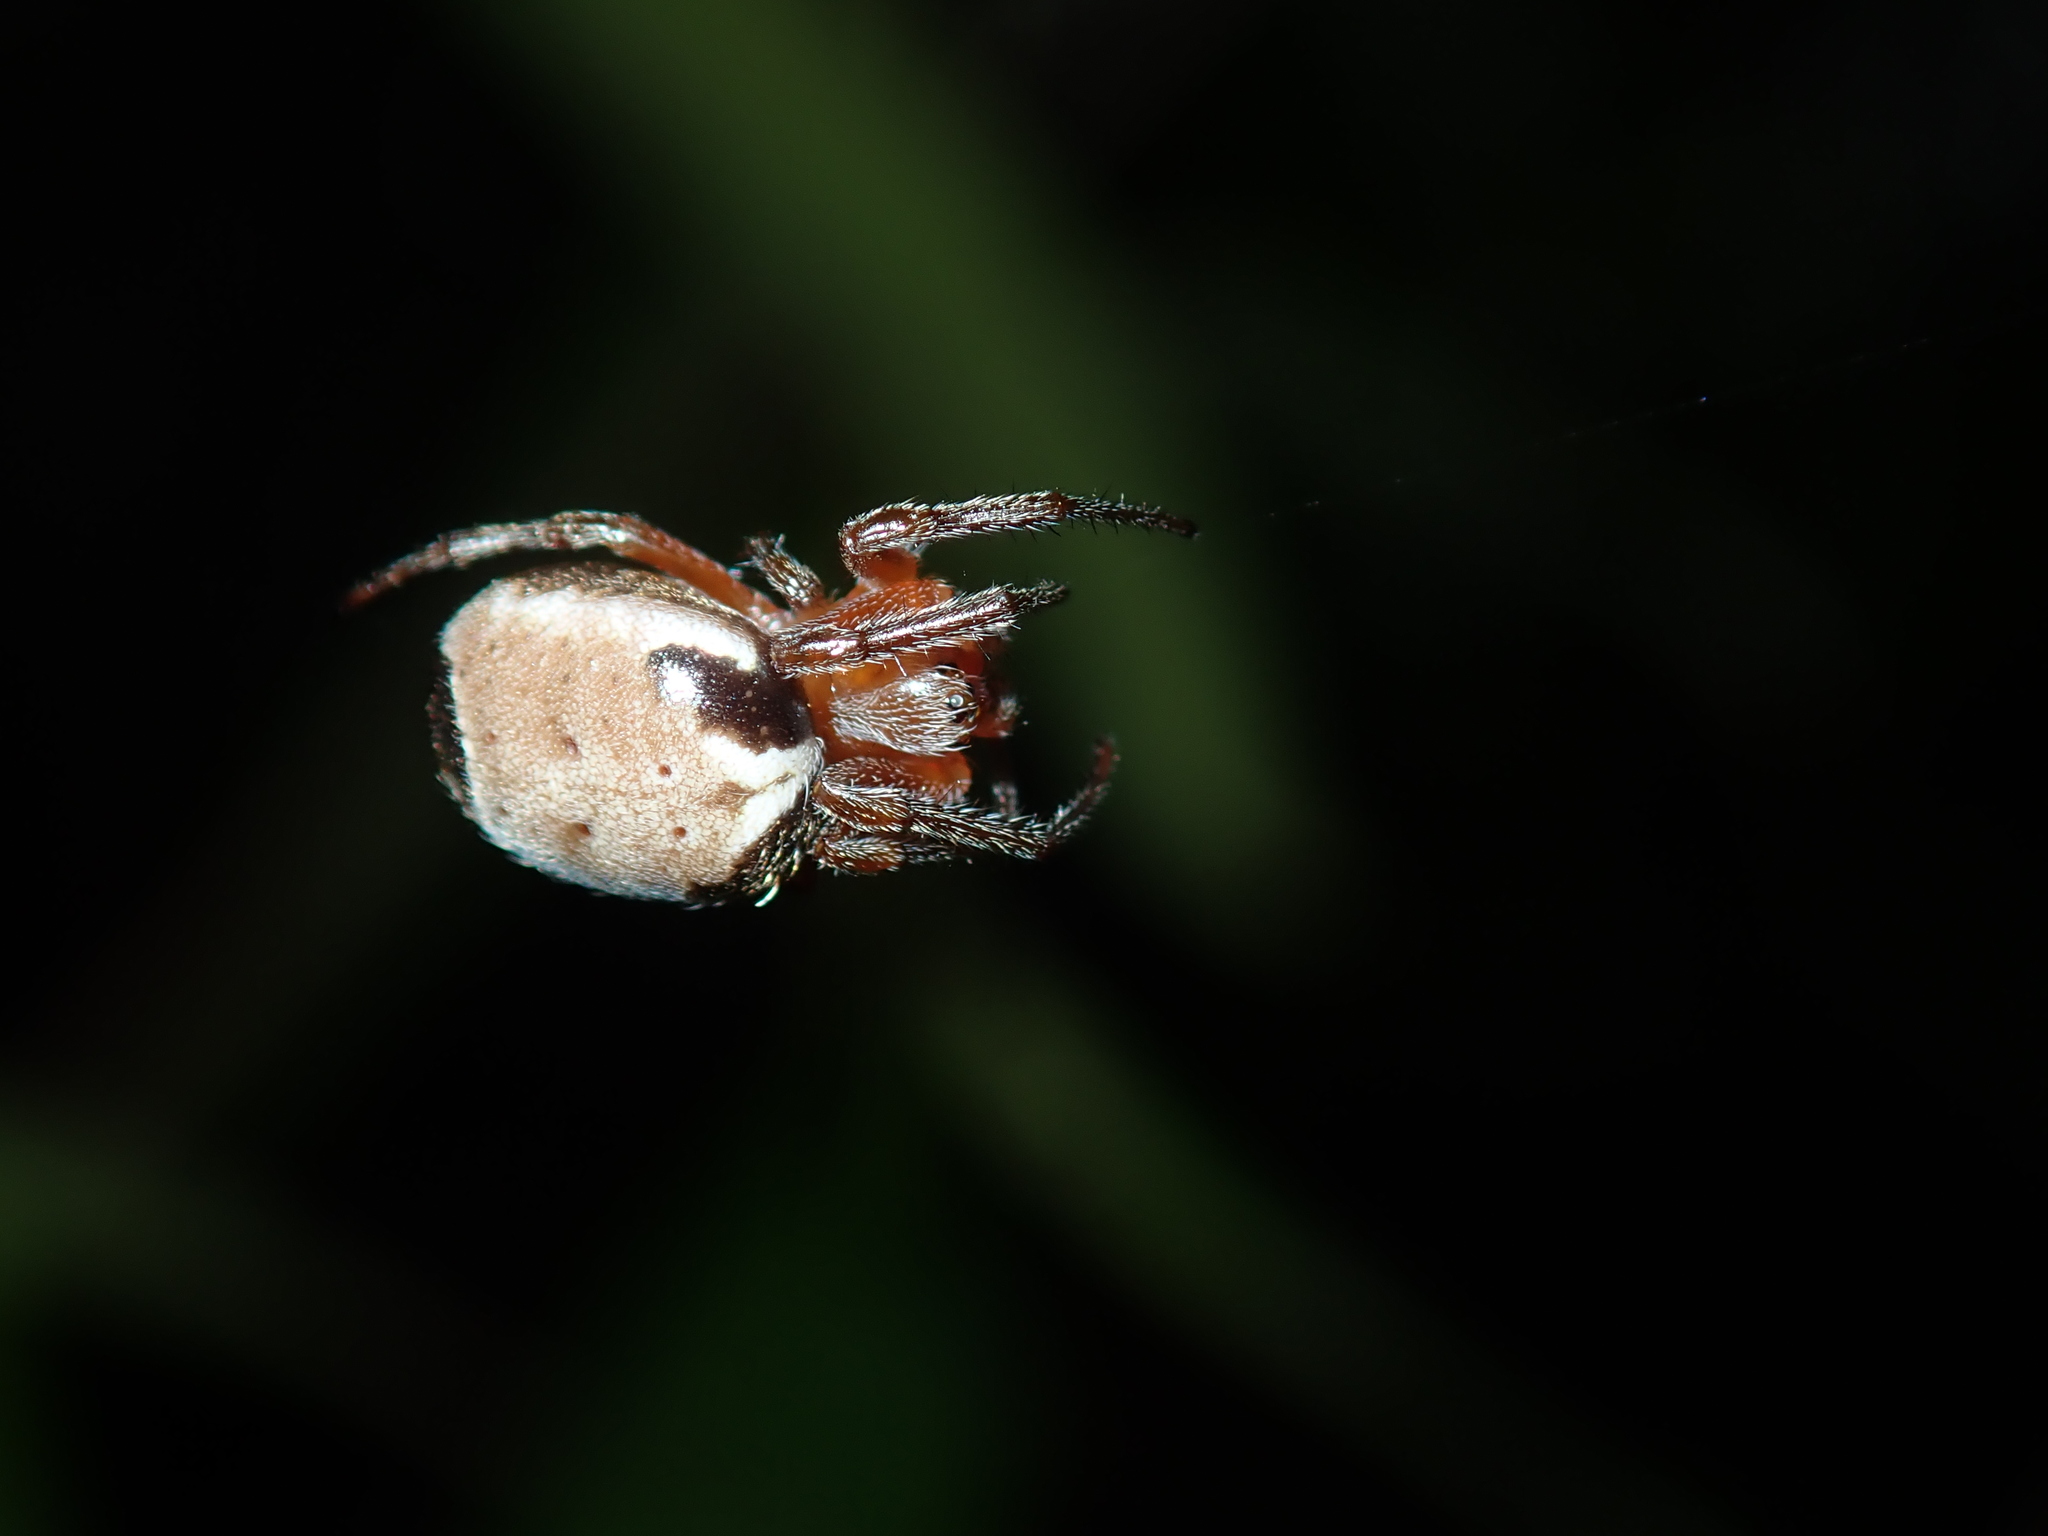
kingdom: Animalia
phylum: Arthropoda
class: Arachnida
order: Araneae
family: Araneidae
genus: Leviana
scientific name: Leviana folium
